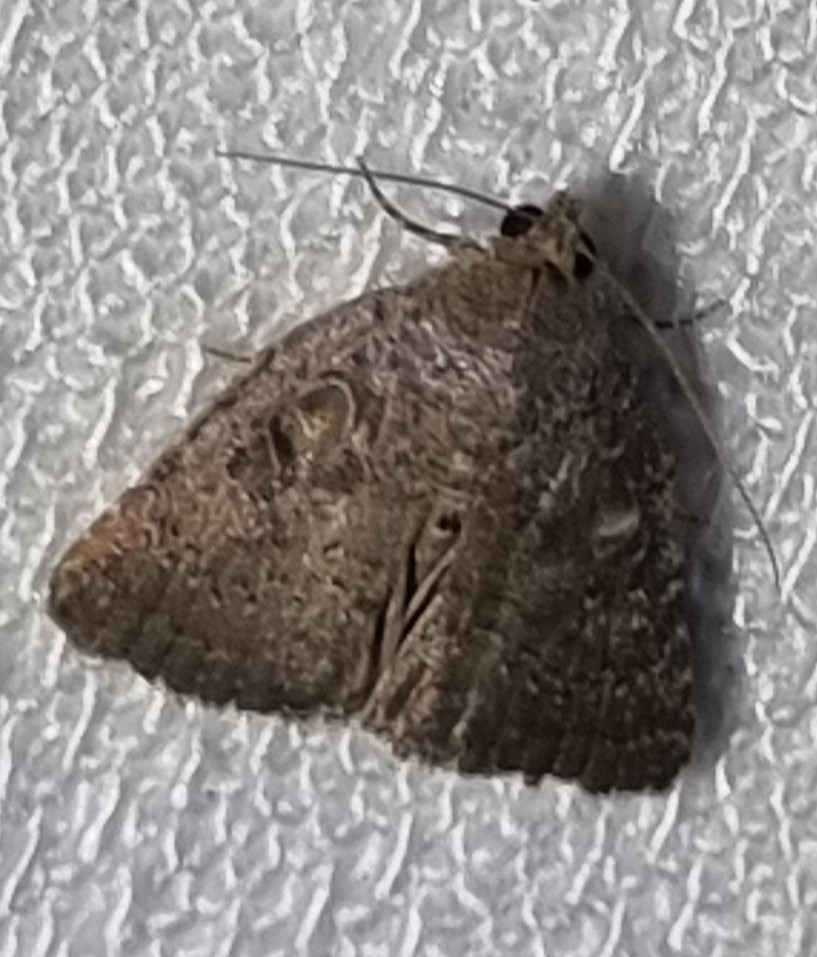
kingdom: Animalia
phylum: Arthropoda
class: Insecta
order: Lepidoptera
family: Noctuidae
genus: Amyna
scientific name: Amyna natalis
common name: Iiima moth
